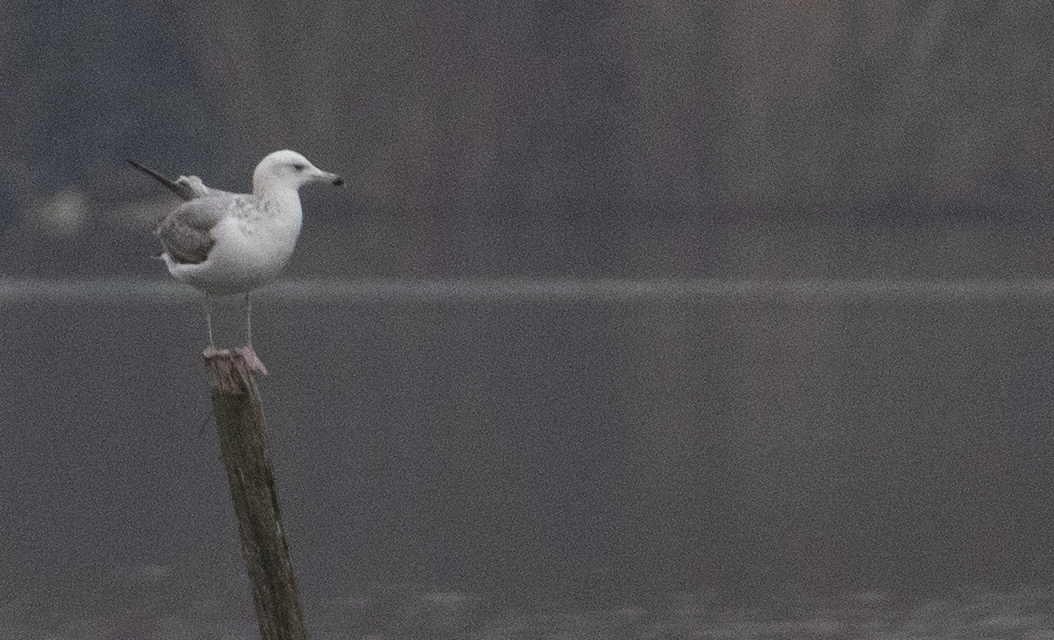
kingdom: Animalia
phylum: Chordata
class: Aves
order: Charadriiformes
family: Laridae
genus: Larus
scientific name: Larus cachinnans
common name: Caspian gull
